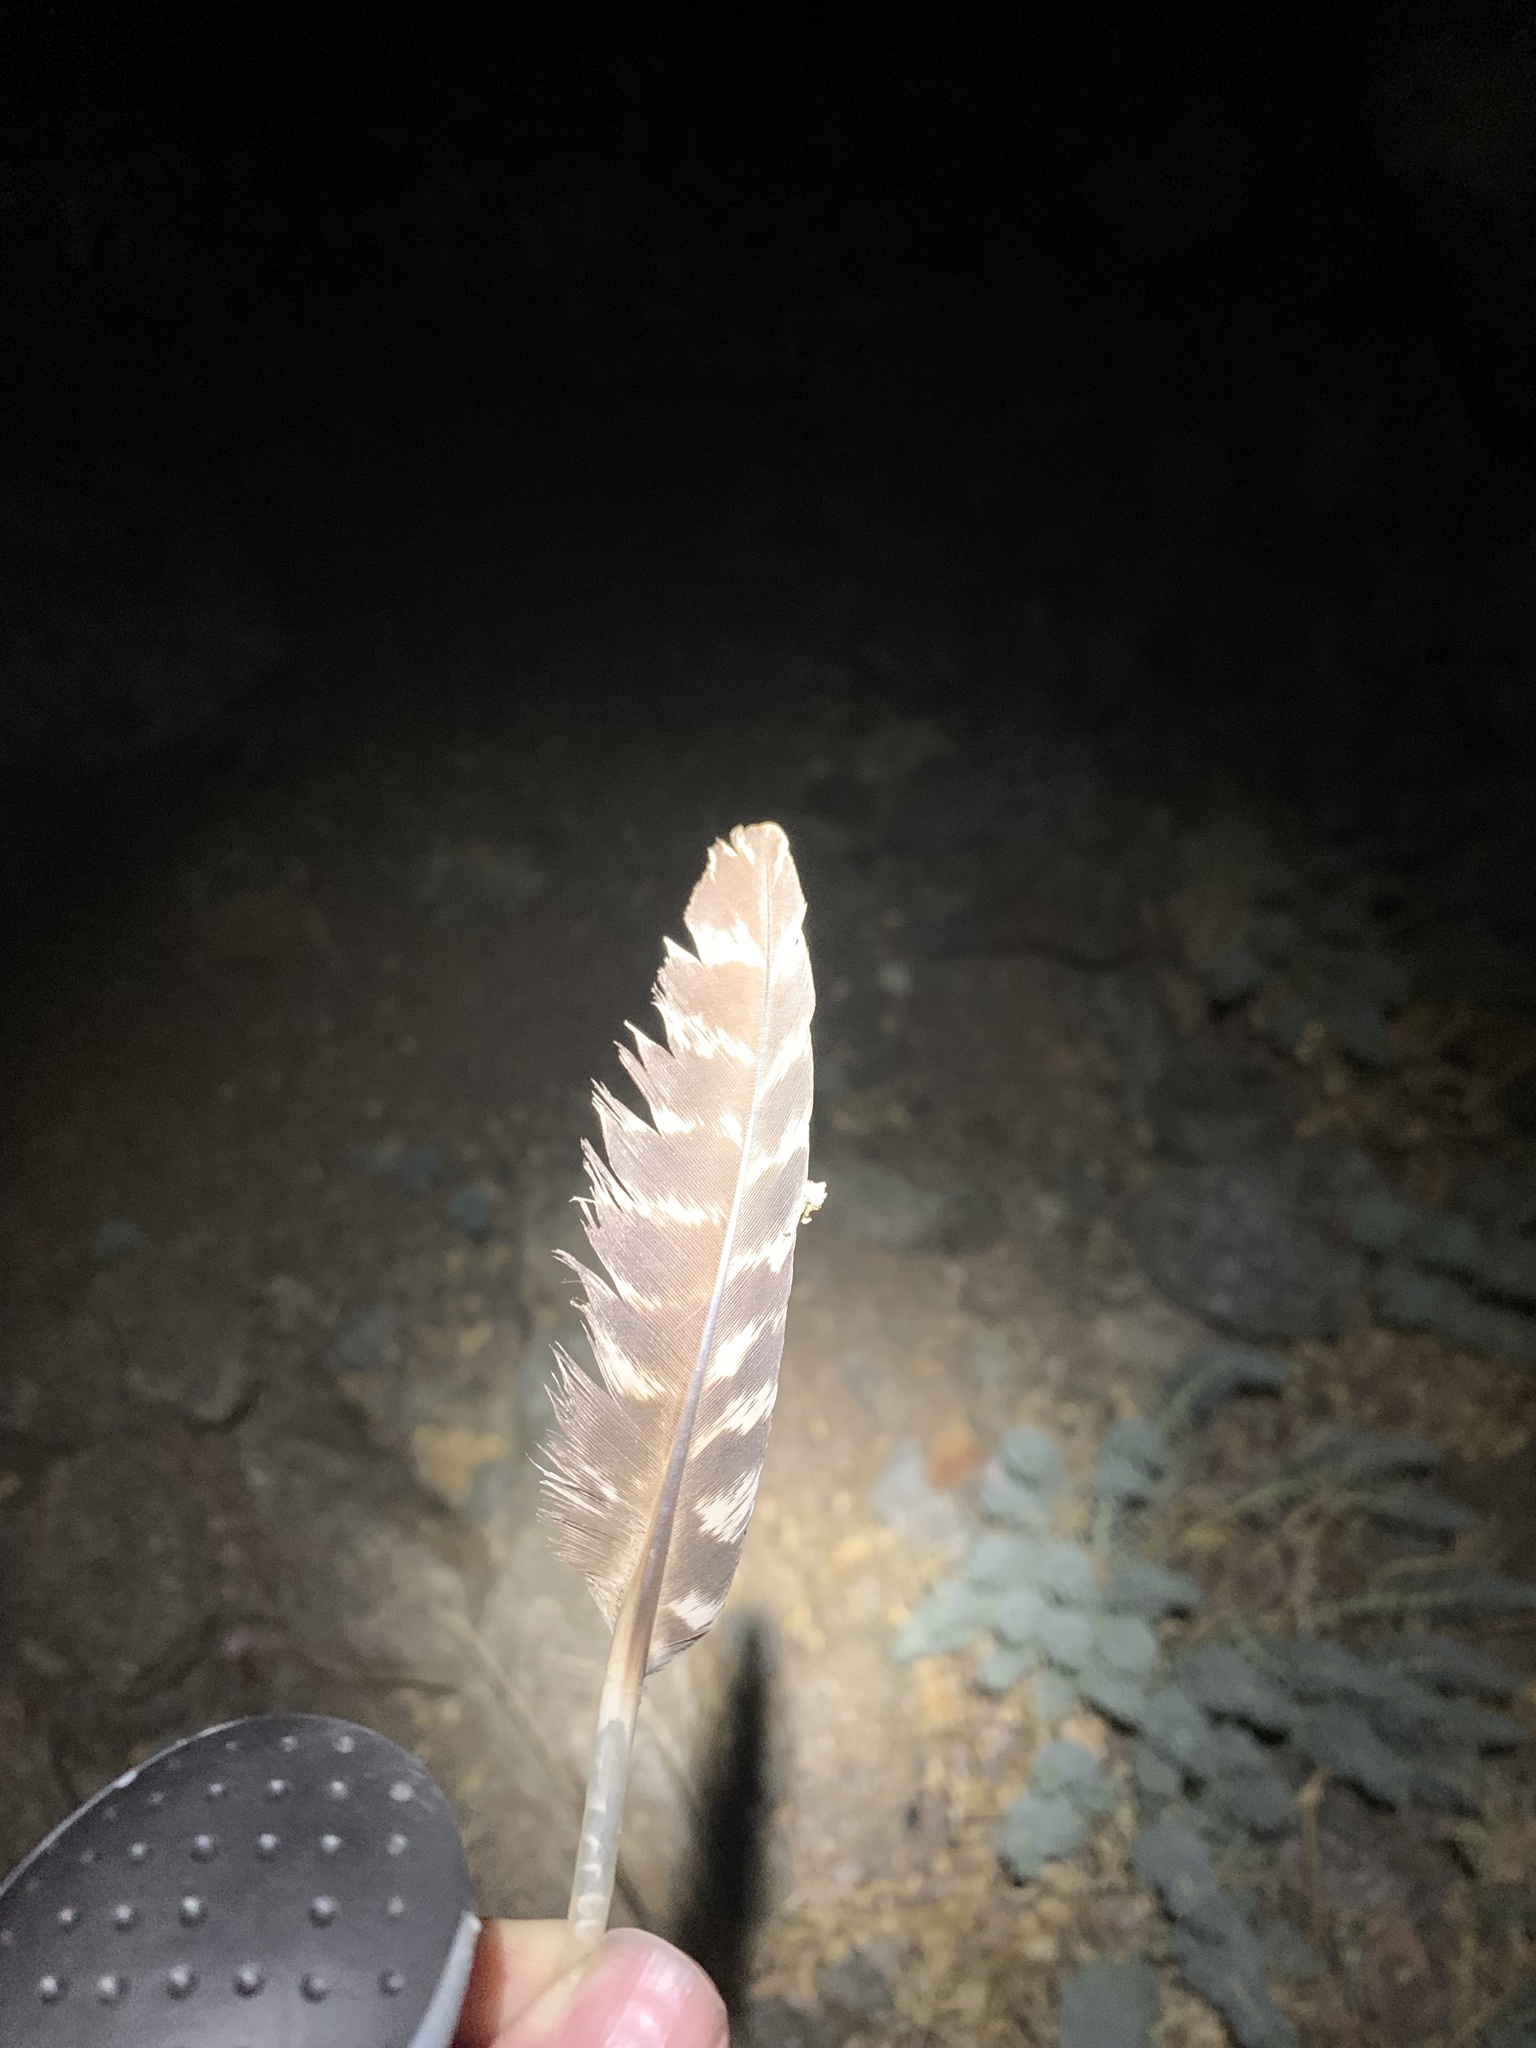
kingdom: Animalia
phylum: Chordata
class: Aves
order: Galliformes
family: Phasianidae
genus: Meleagris
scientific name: Meleagris gallopavo
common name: Wild turkey
